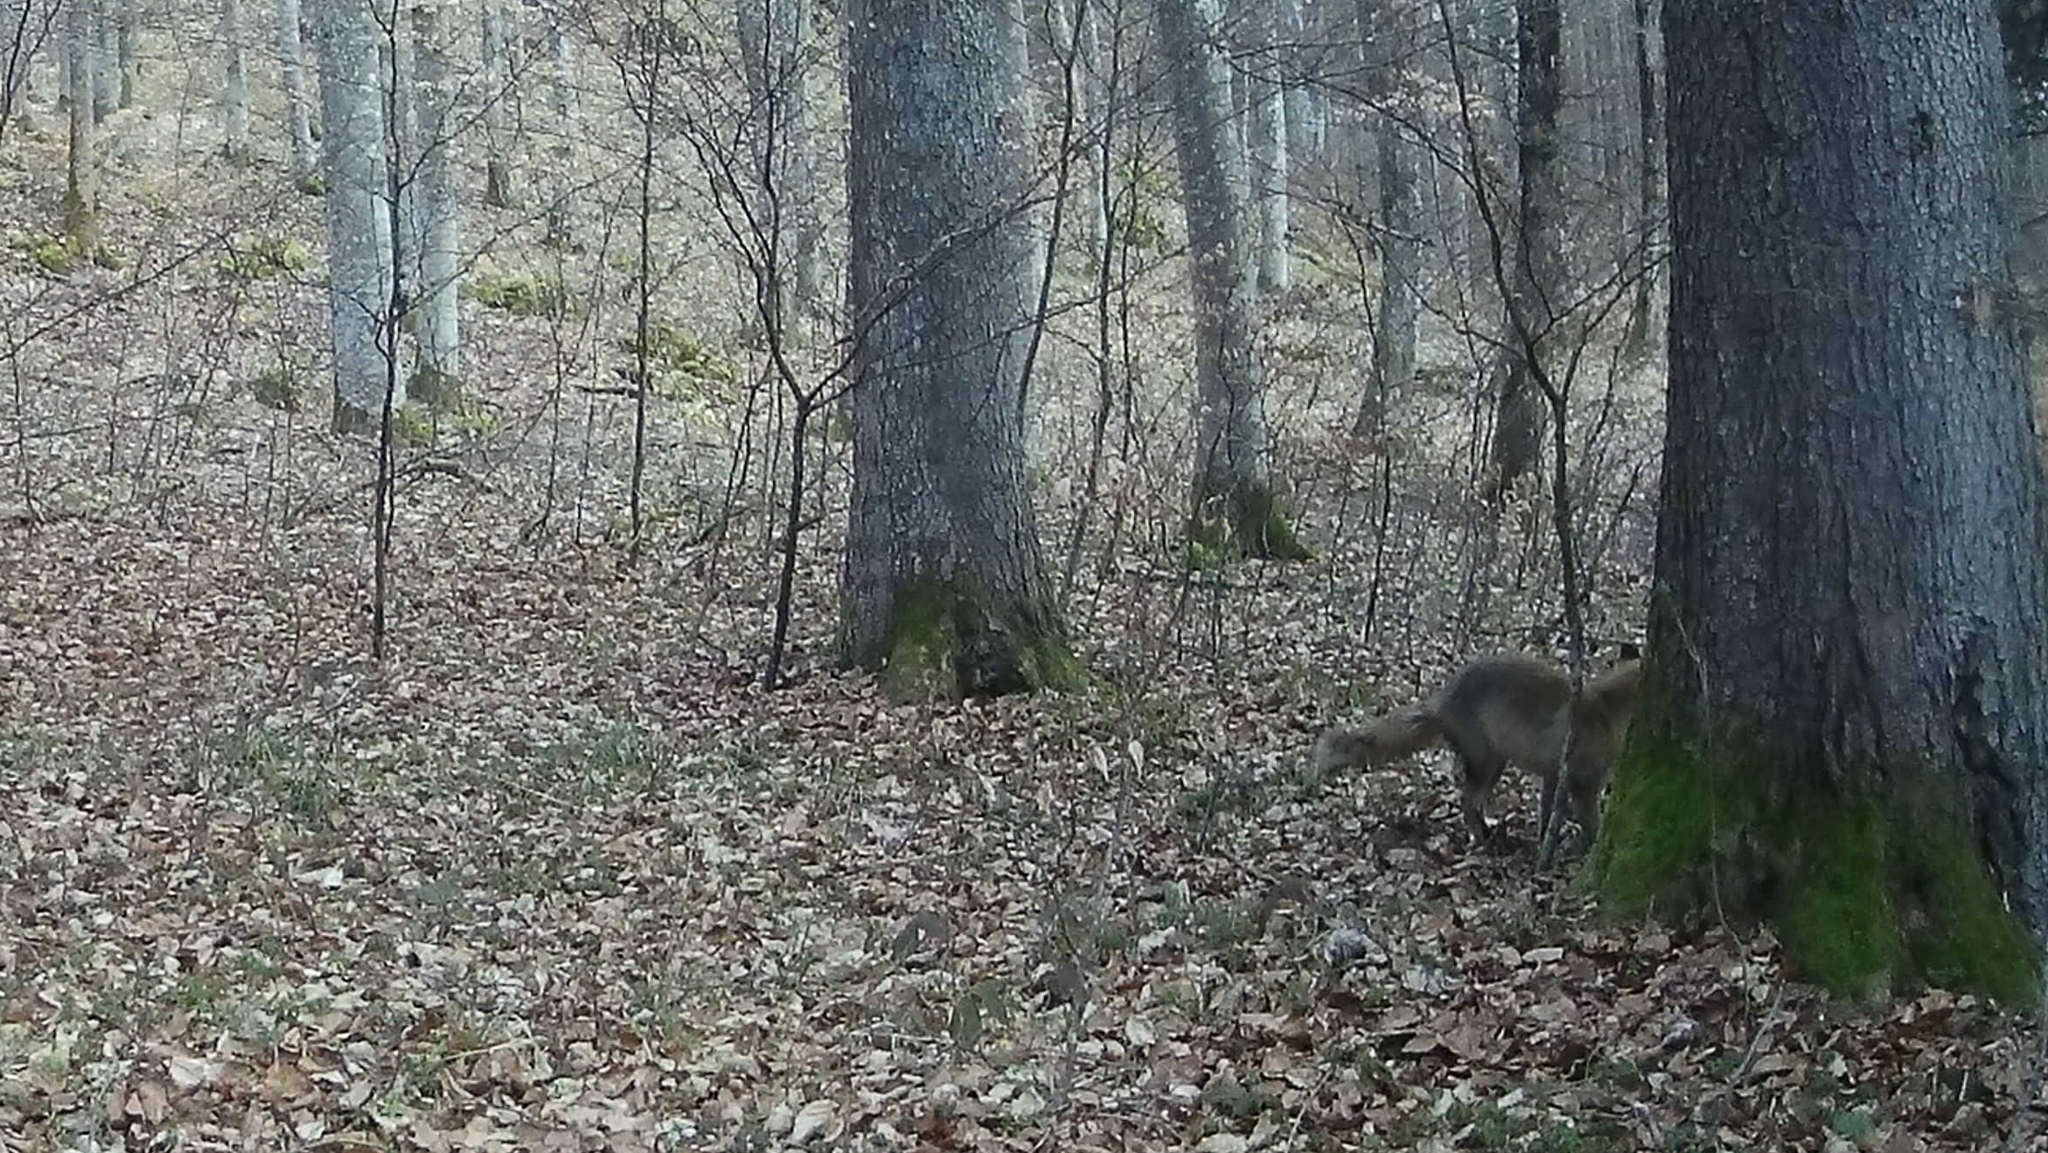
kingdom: Animalia
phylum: Chordata
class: Mammalia
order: Carnivora
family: Canidae
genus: Vulpes
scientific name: Vulpes vulpes
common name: Red fox
